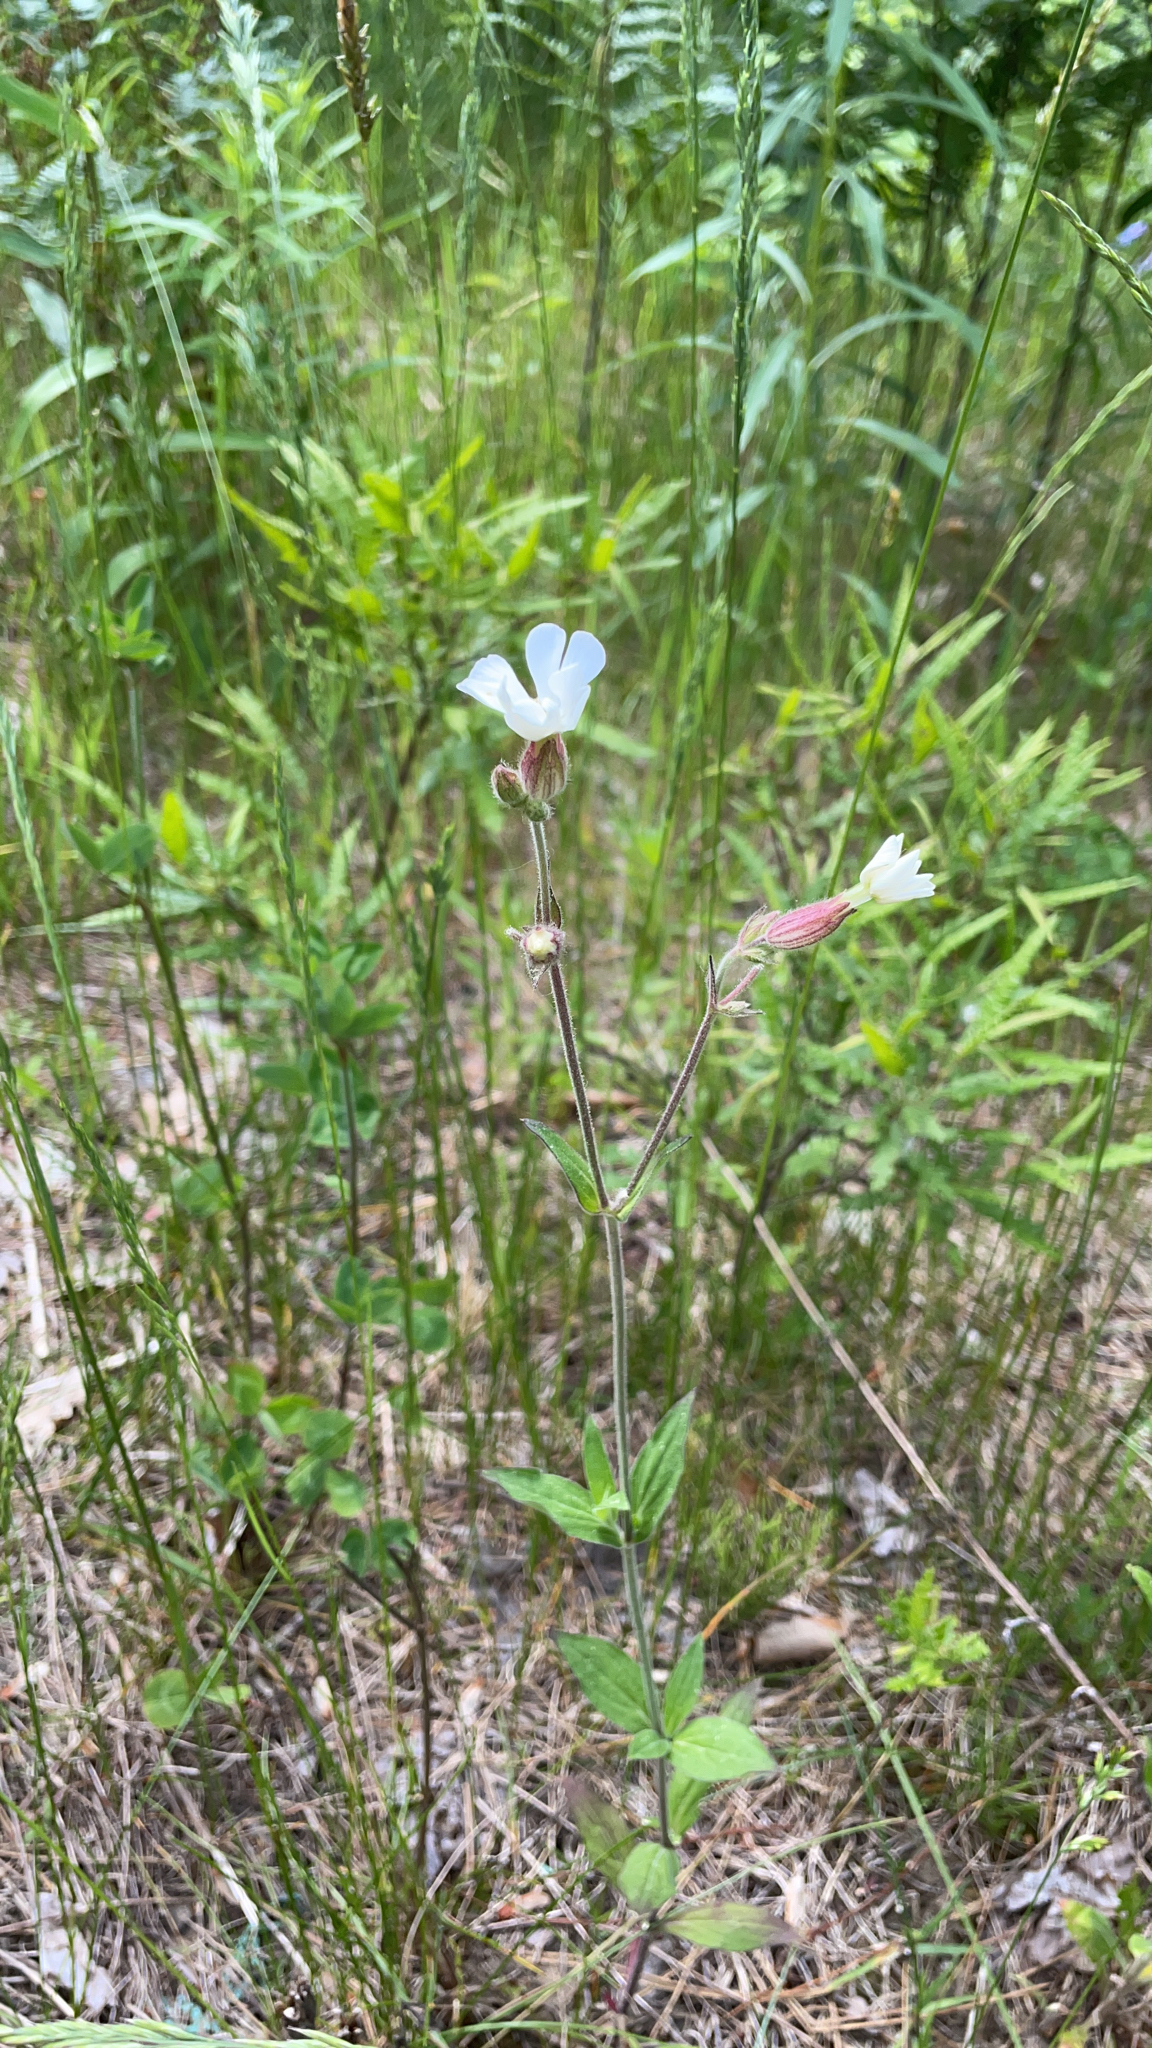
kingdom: Plantae
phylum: Tracheophyta
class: Magnoliopsida
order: Caryophyllales
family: Caryophyllaceae
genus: Silene
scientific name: Silene latifolia
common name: White campion
